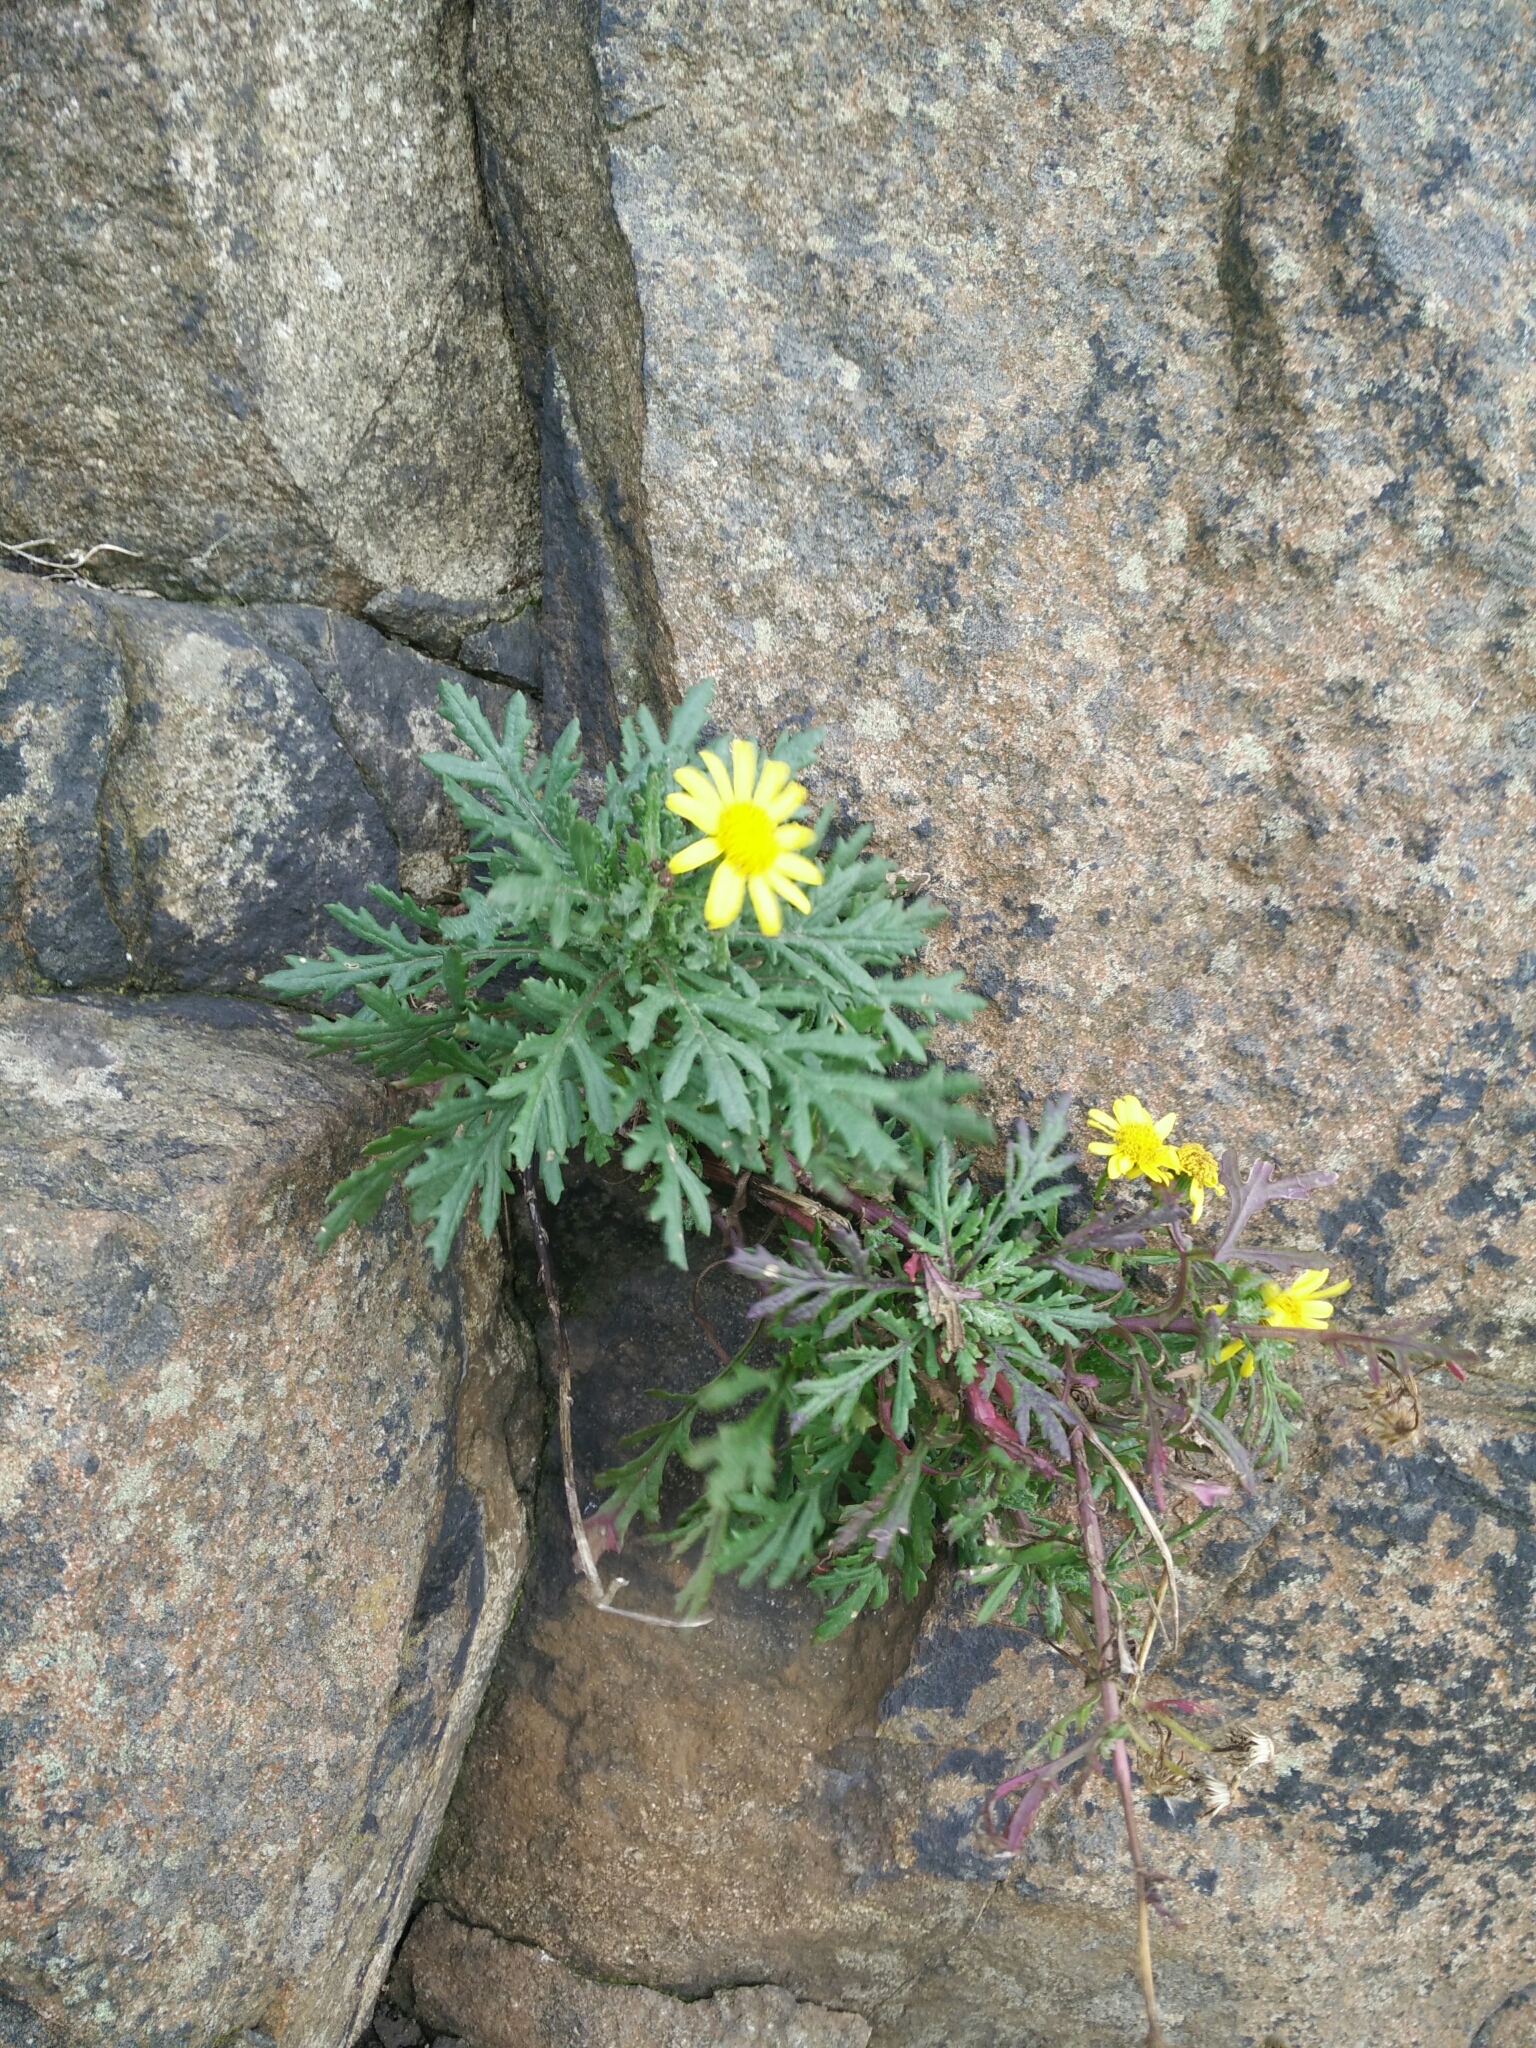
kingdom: Plantae
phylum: Tracheophyta
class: Magnoliopsida
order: Asterales
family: Asteraceae
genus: Senecio
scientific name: Senecio squalidus
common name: Oxford ragwort
